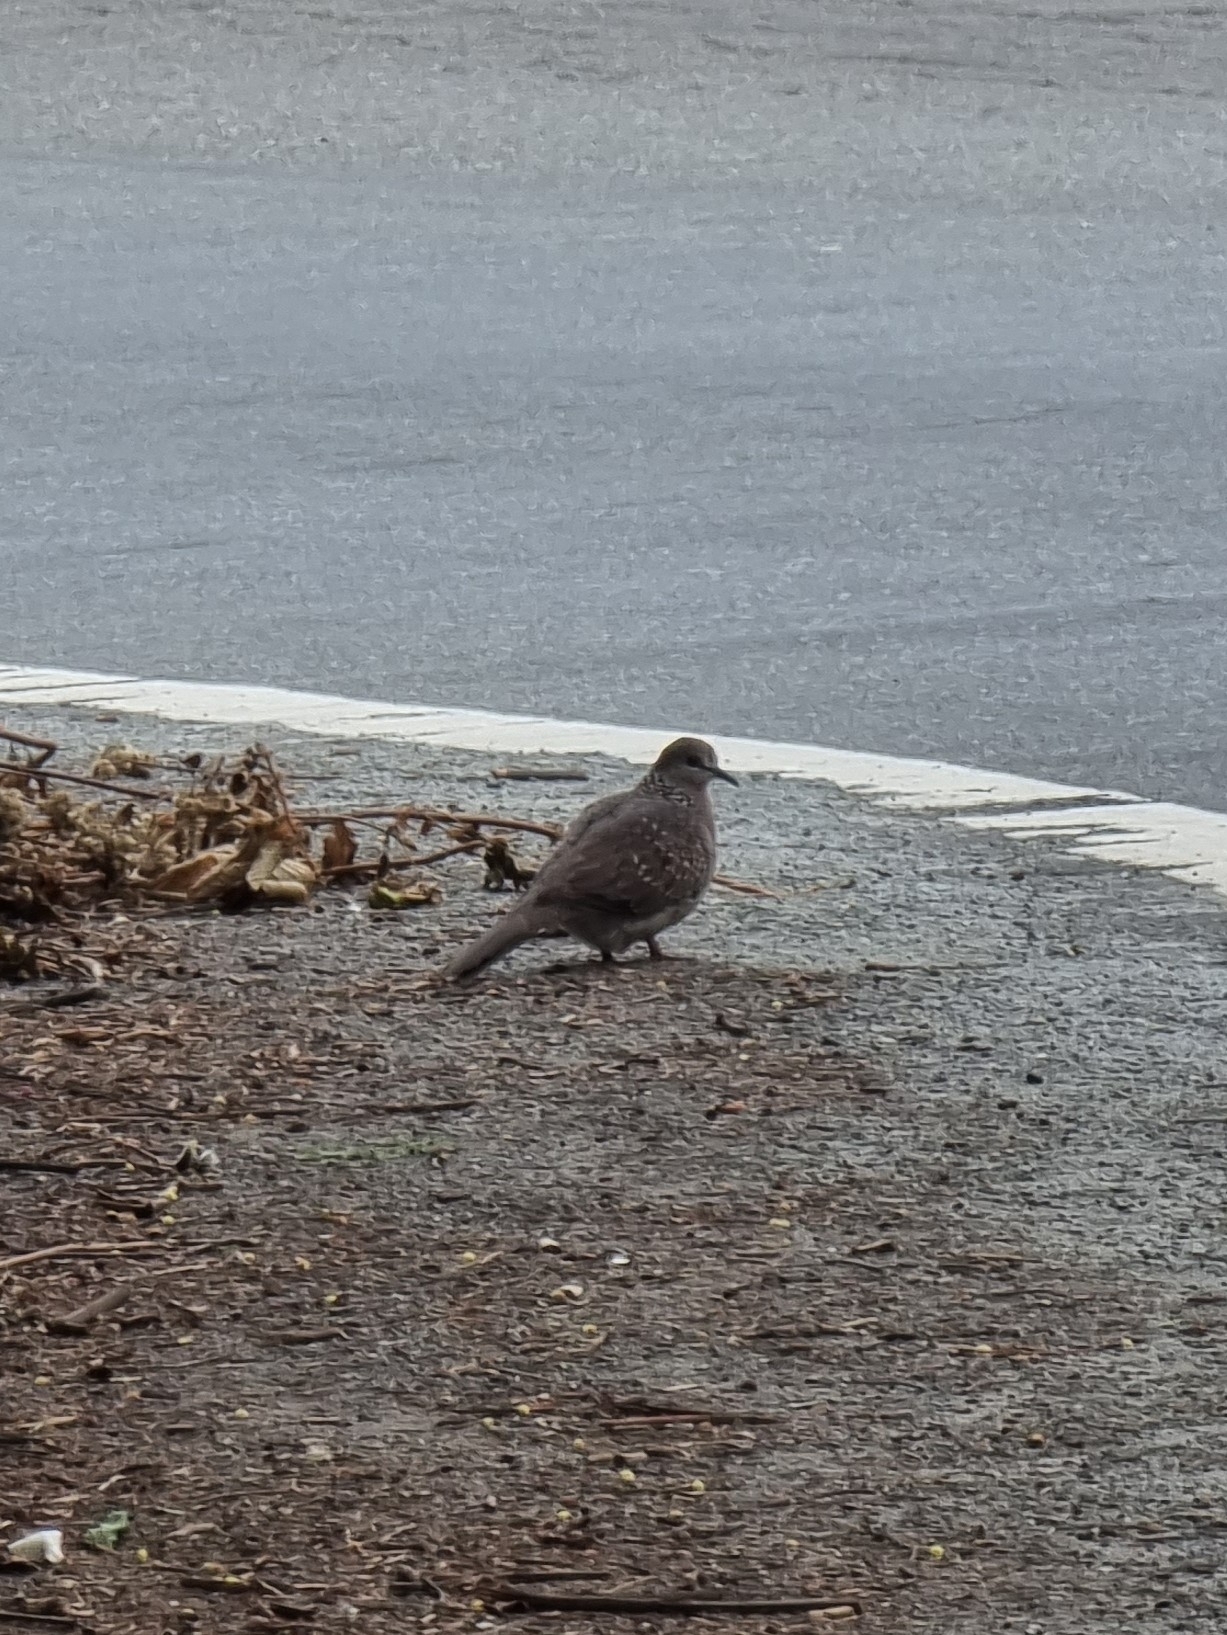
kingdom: Animalia
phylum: Chordata
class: Aves
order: Columbiformes
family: Columbidae
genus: Spilopelia
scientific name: Spilopelia chinensis
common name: Spotted dove
